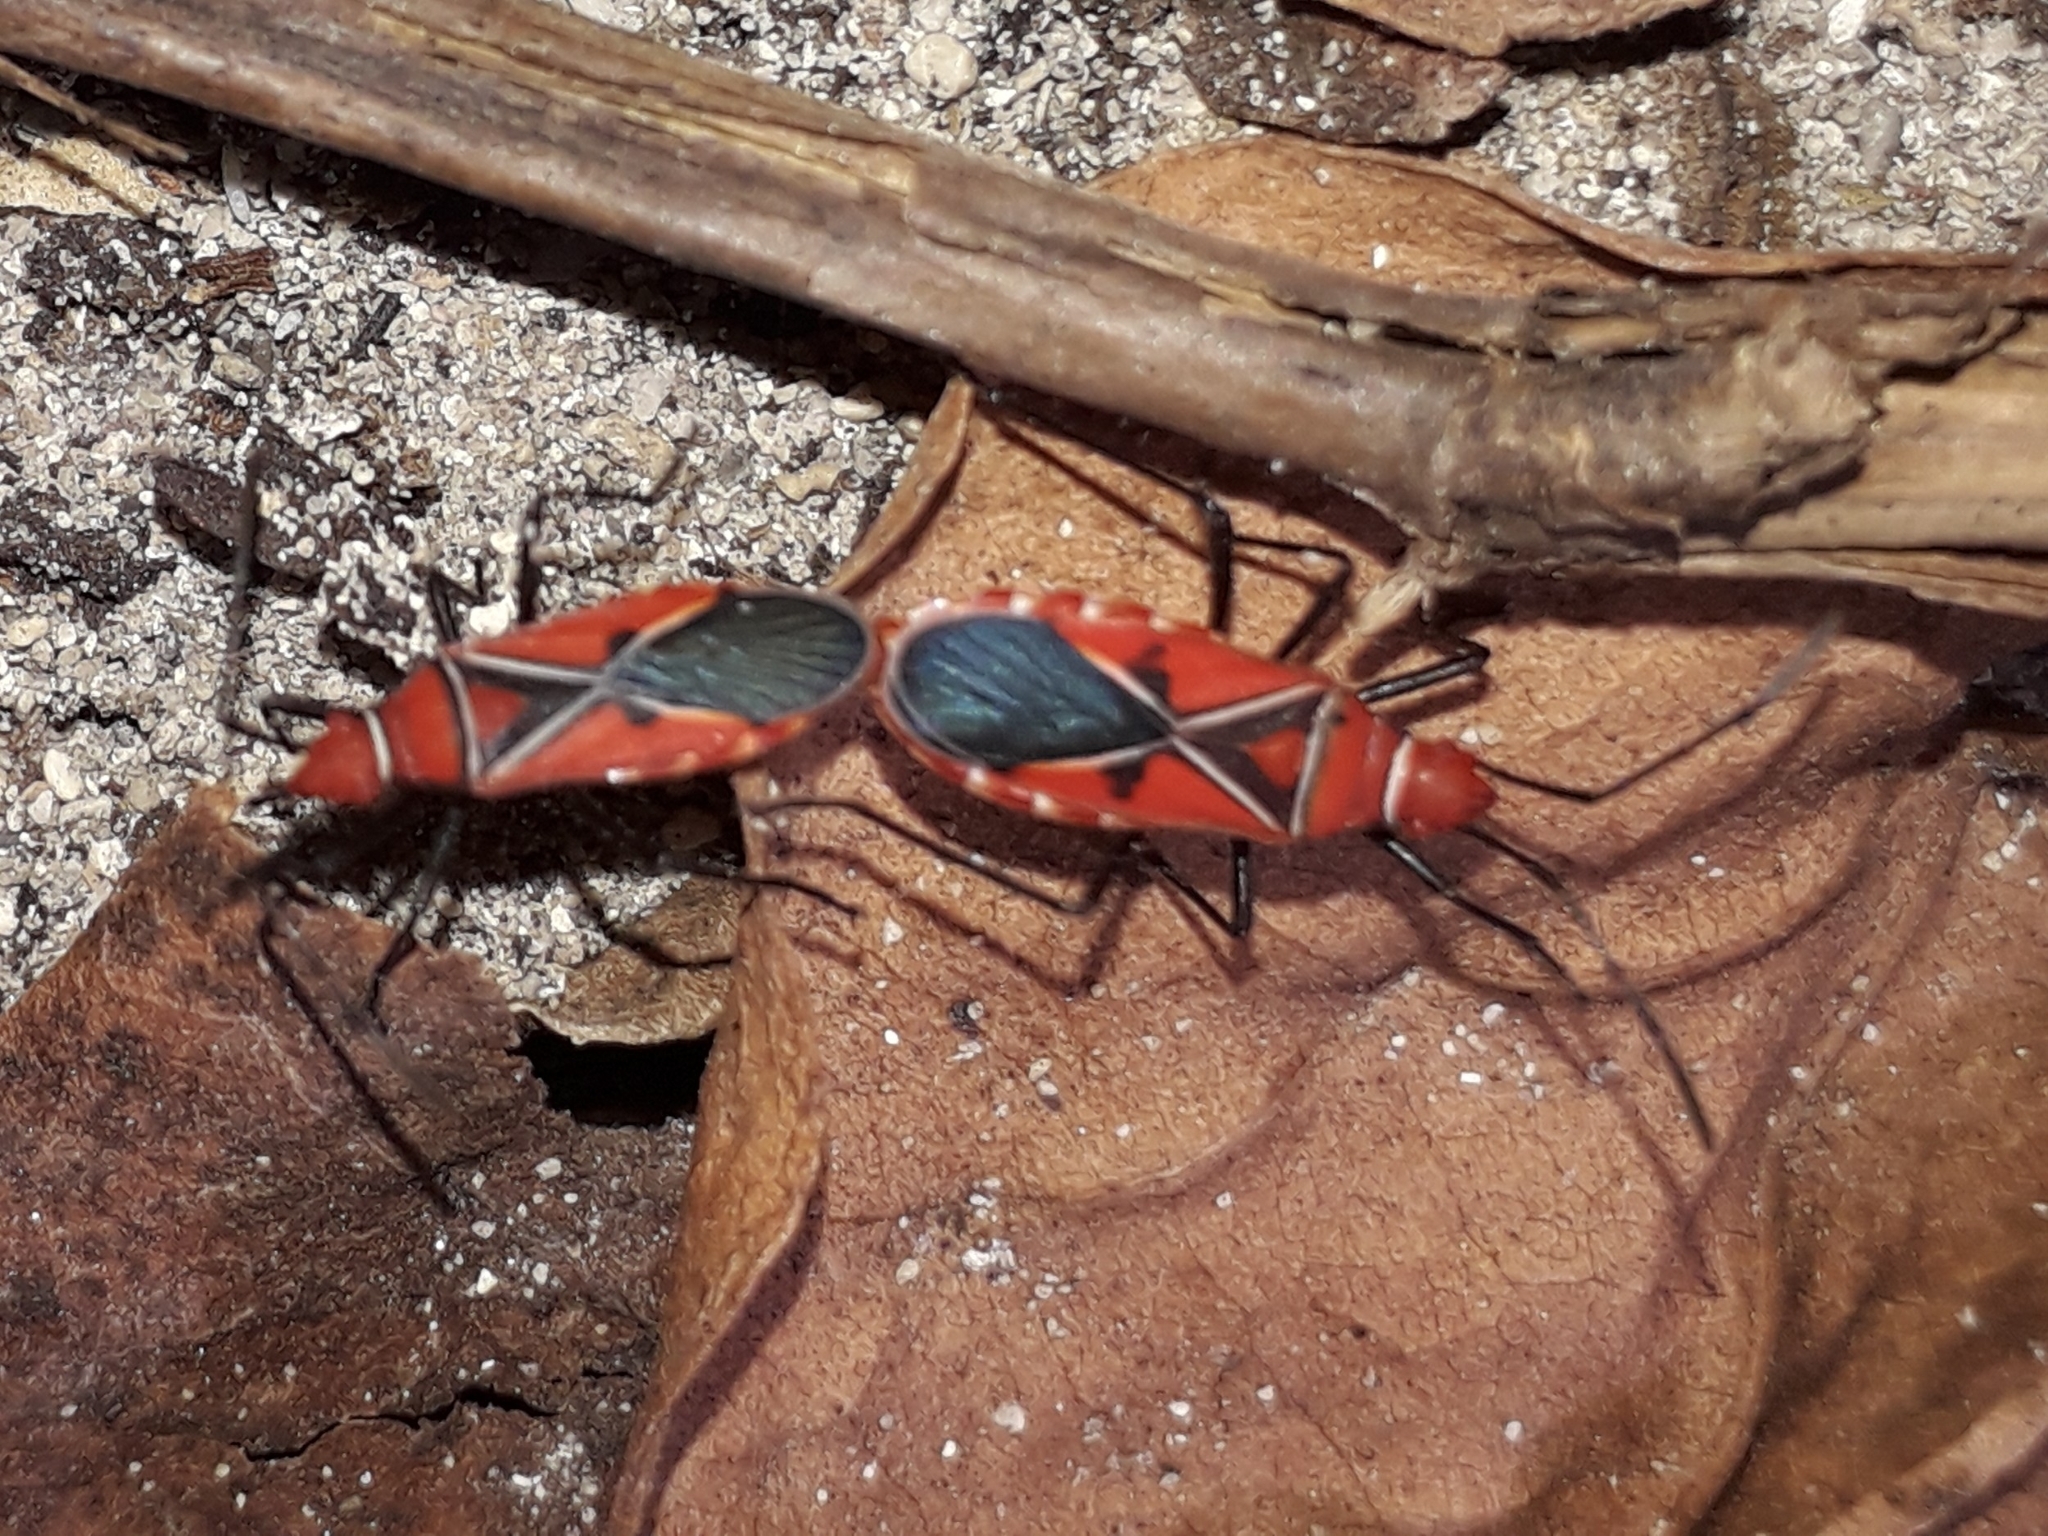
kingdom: Animalia
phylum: Arthropoda
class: Insecta
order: Hemiptera
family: Pyrrhocoridae
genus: Dysdercus
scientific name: Dysdercus andreae
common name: St. andrew's cotton stainer
